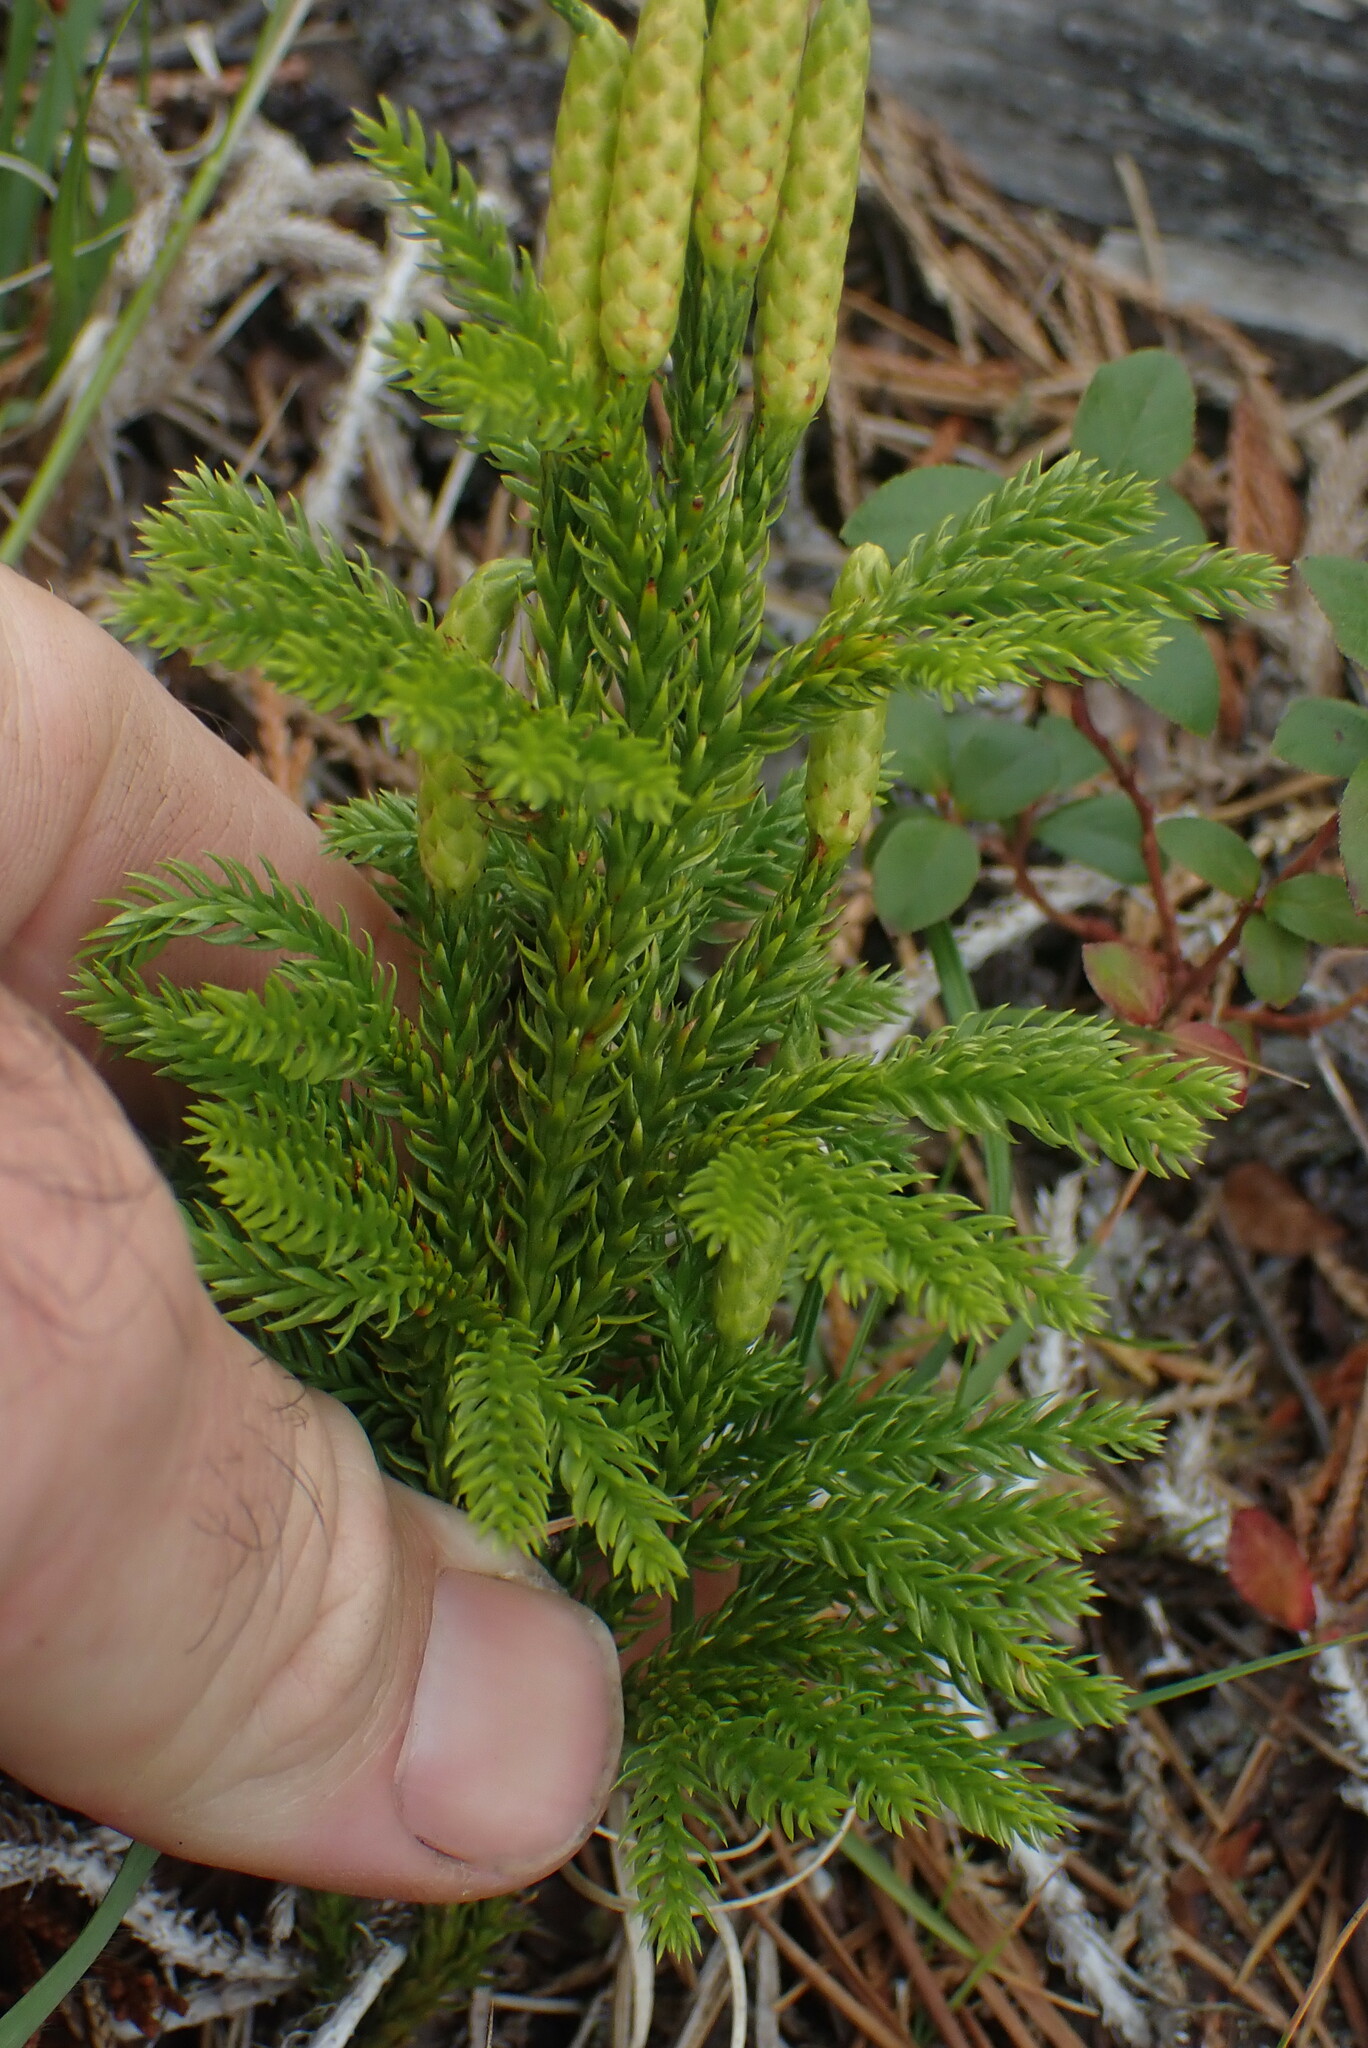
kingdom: Plantae
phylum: Tracheophyta
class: Lycopodiopsida
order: Lycopodiales
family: Lycopodiaceae
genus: Dendrolycopodium
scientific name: Dendrolycopodium dendroideum
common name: Northern tree-clubmoss
